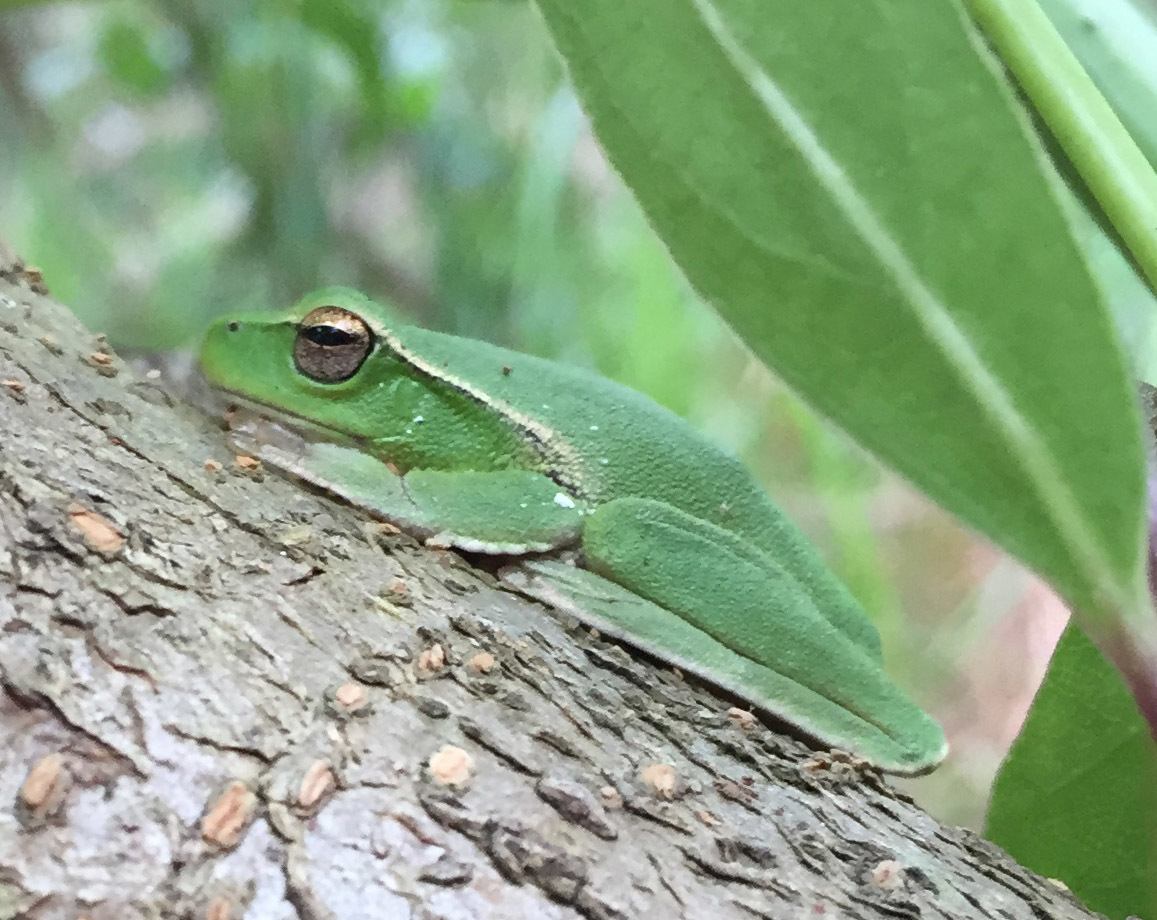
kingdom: Animalia
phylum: Chordata
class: Amphibia
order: Anura
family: Pelodryadidae
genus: Ranoidea
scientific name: Ranoidea phyllochroa
